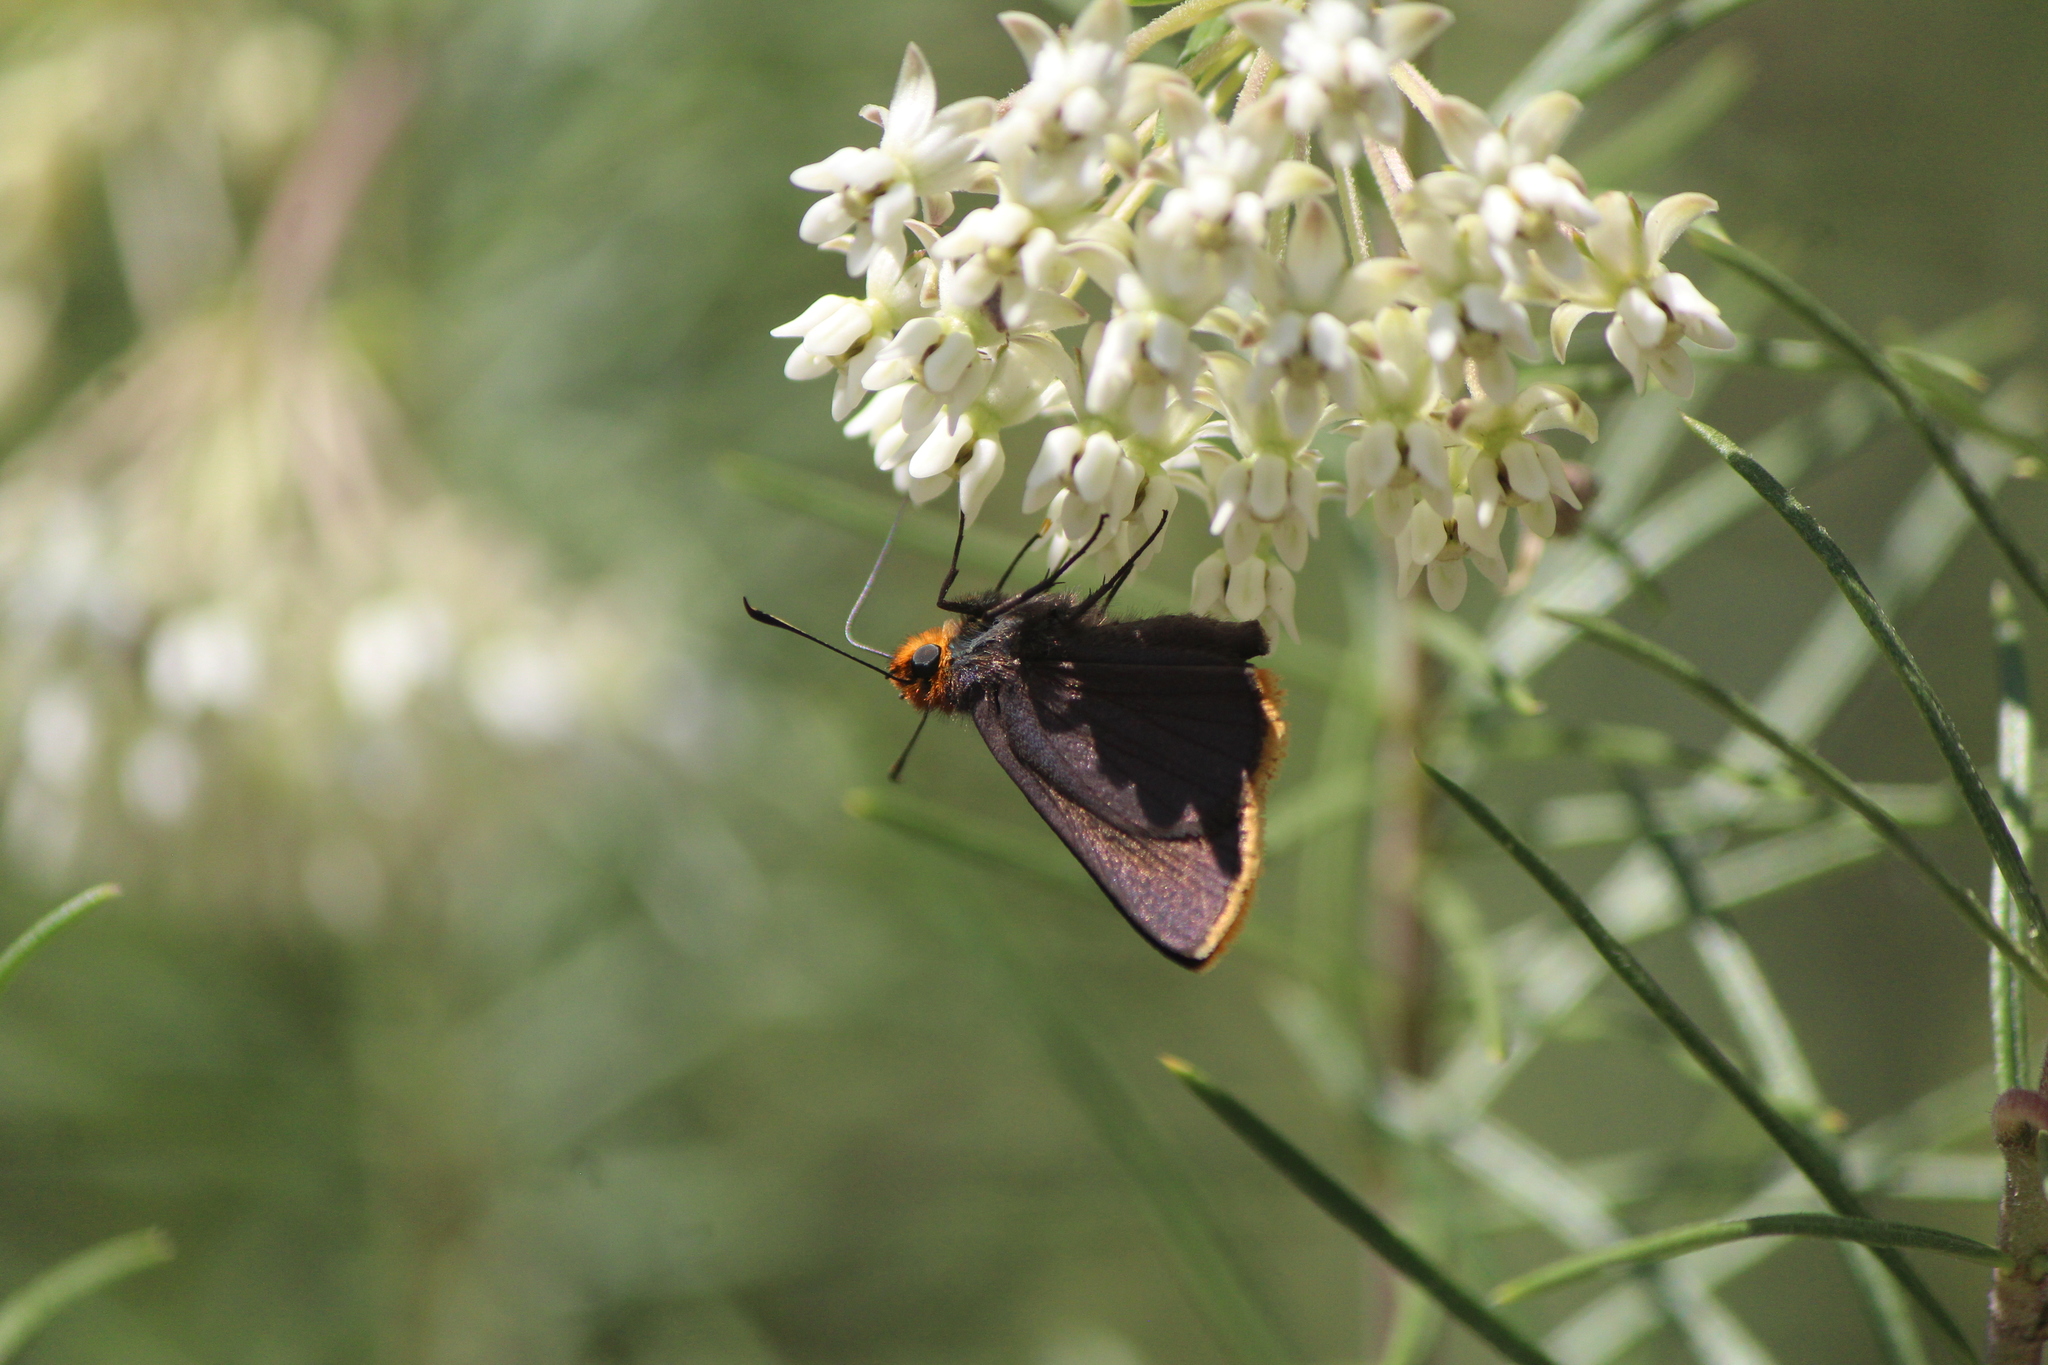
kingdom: Animalia
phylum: Arthropoda
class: Insecta
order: Lepidoptera
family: Hesperiidae
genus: Mastor
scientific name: Mastor fimbriata
